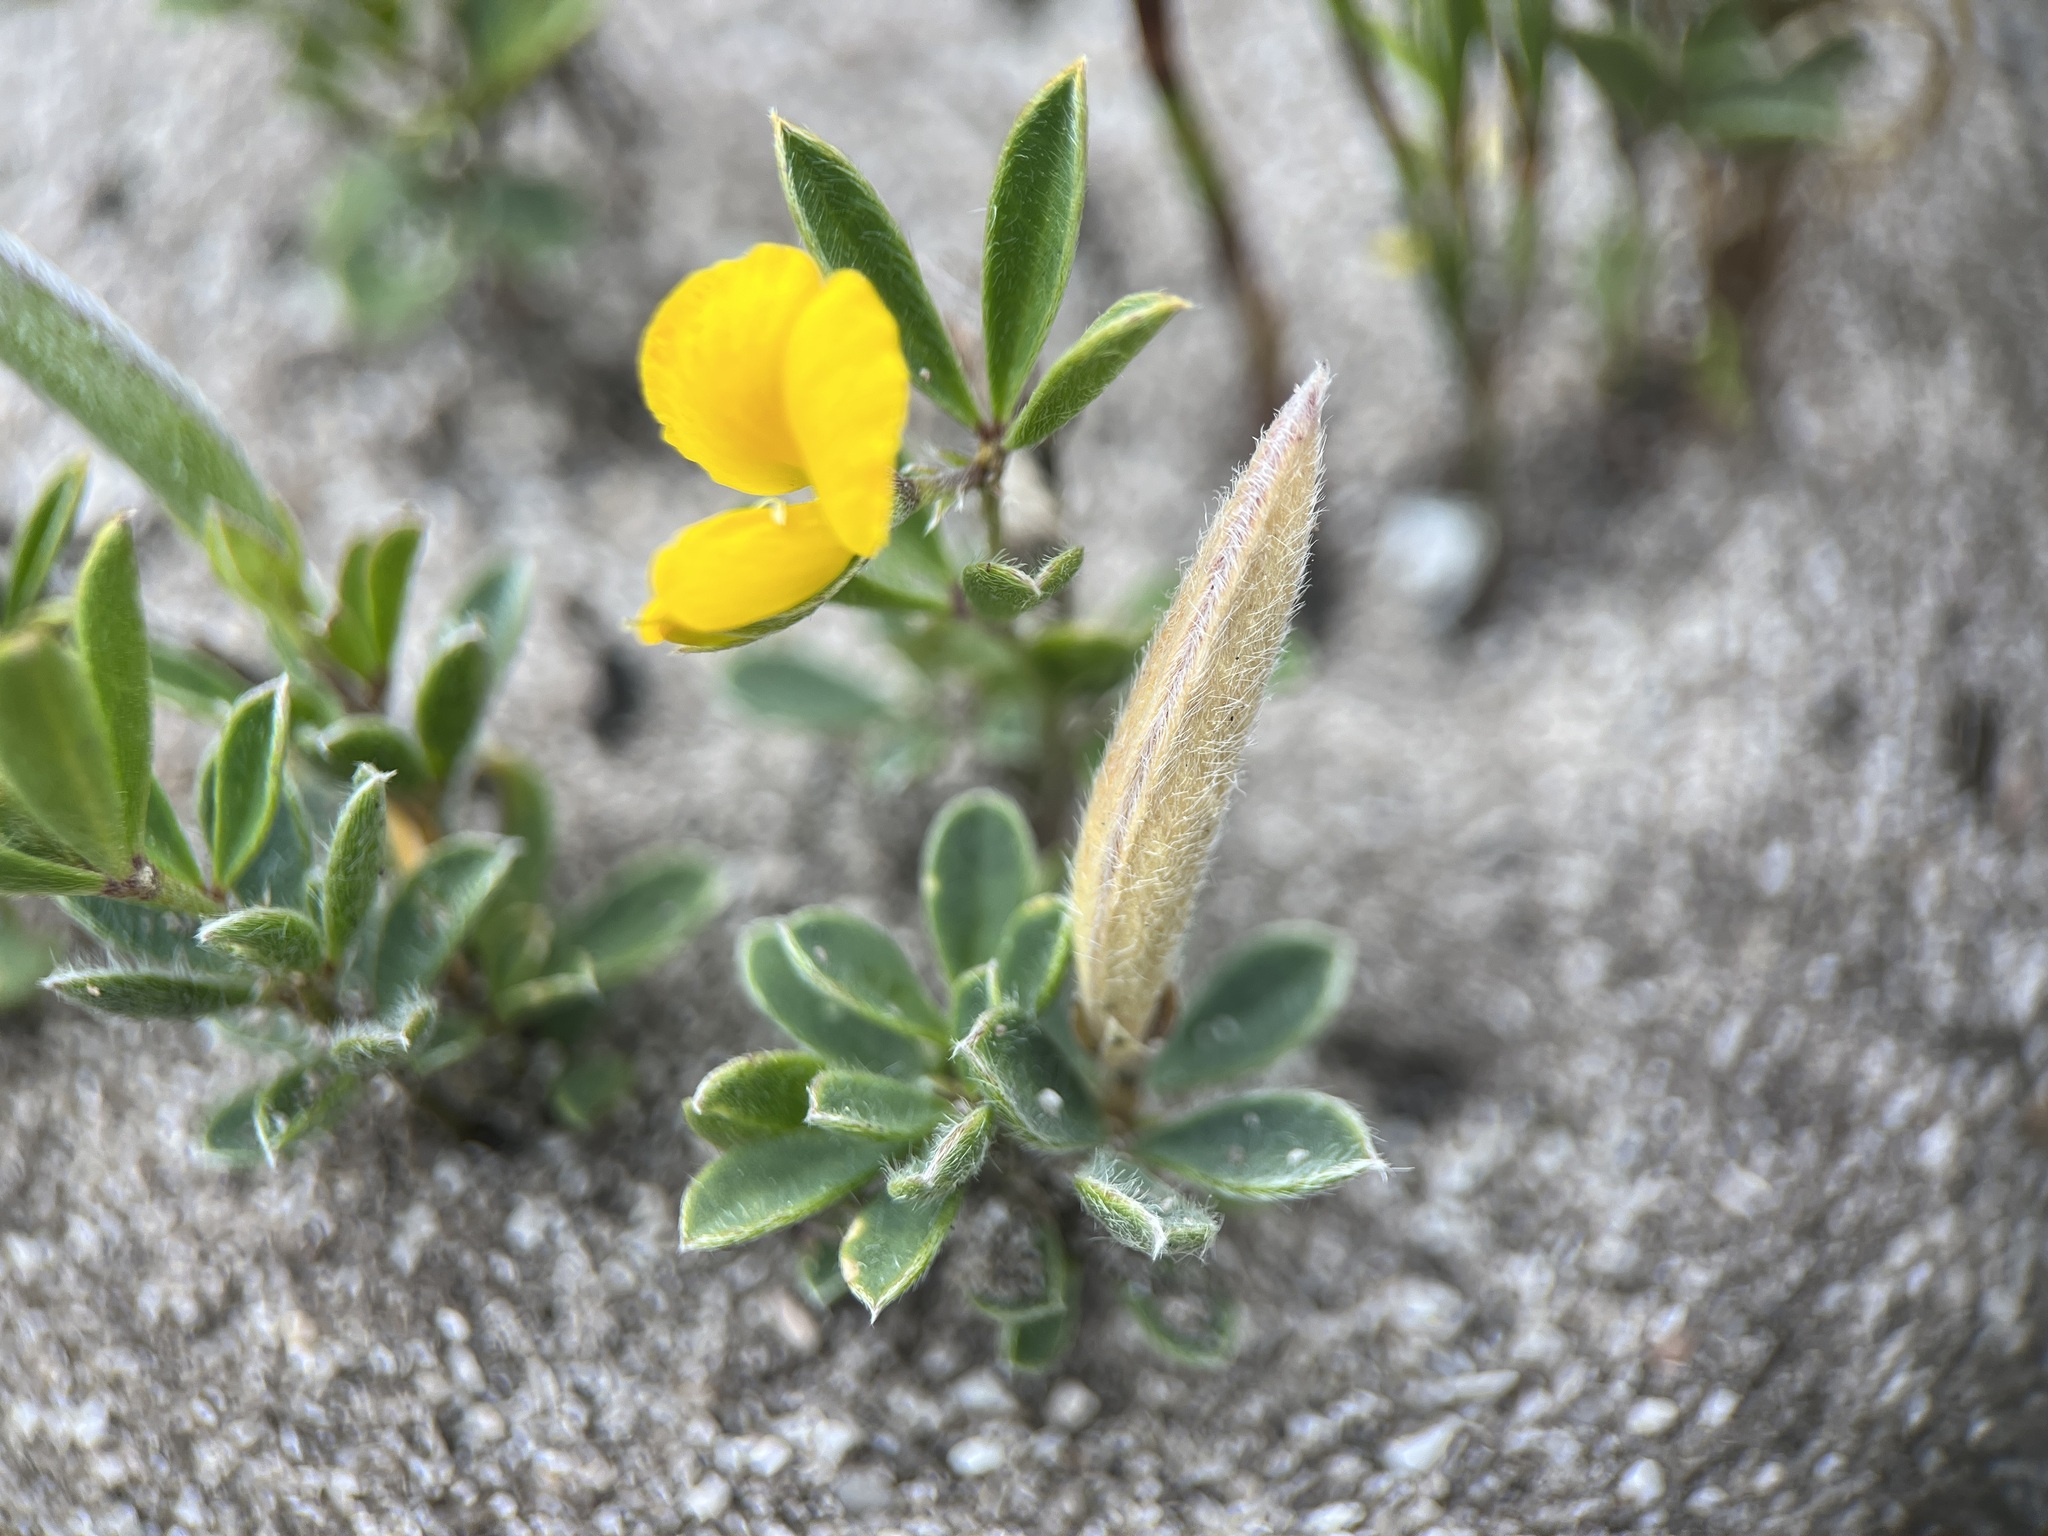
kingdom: Plantae
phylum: Tracheophyta
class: Magnoliopsida
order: Fabales
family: Fabaceae
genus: Argyrolobium
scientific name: Argyrolobium harmsianum
